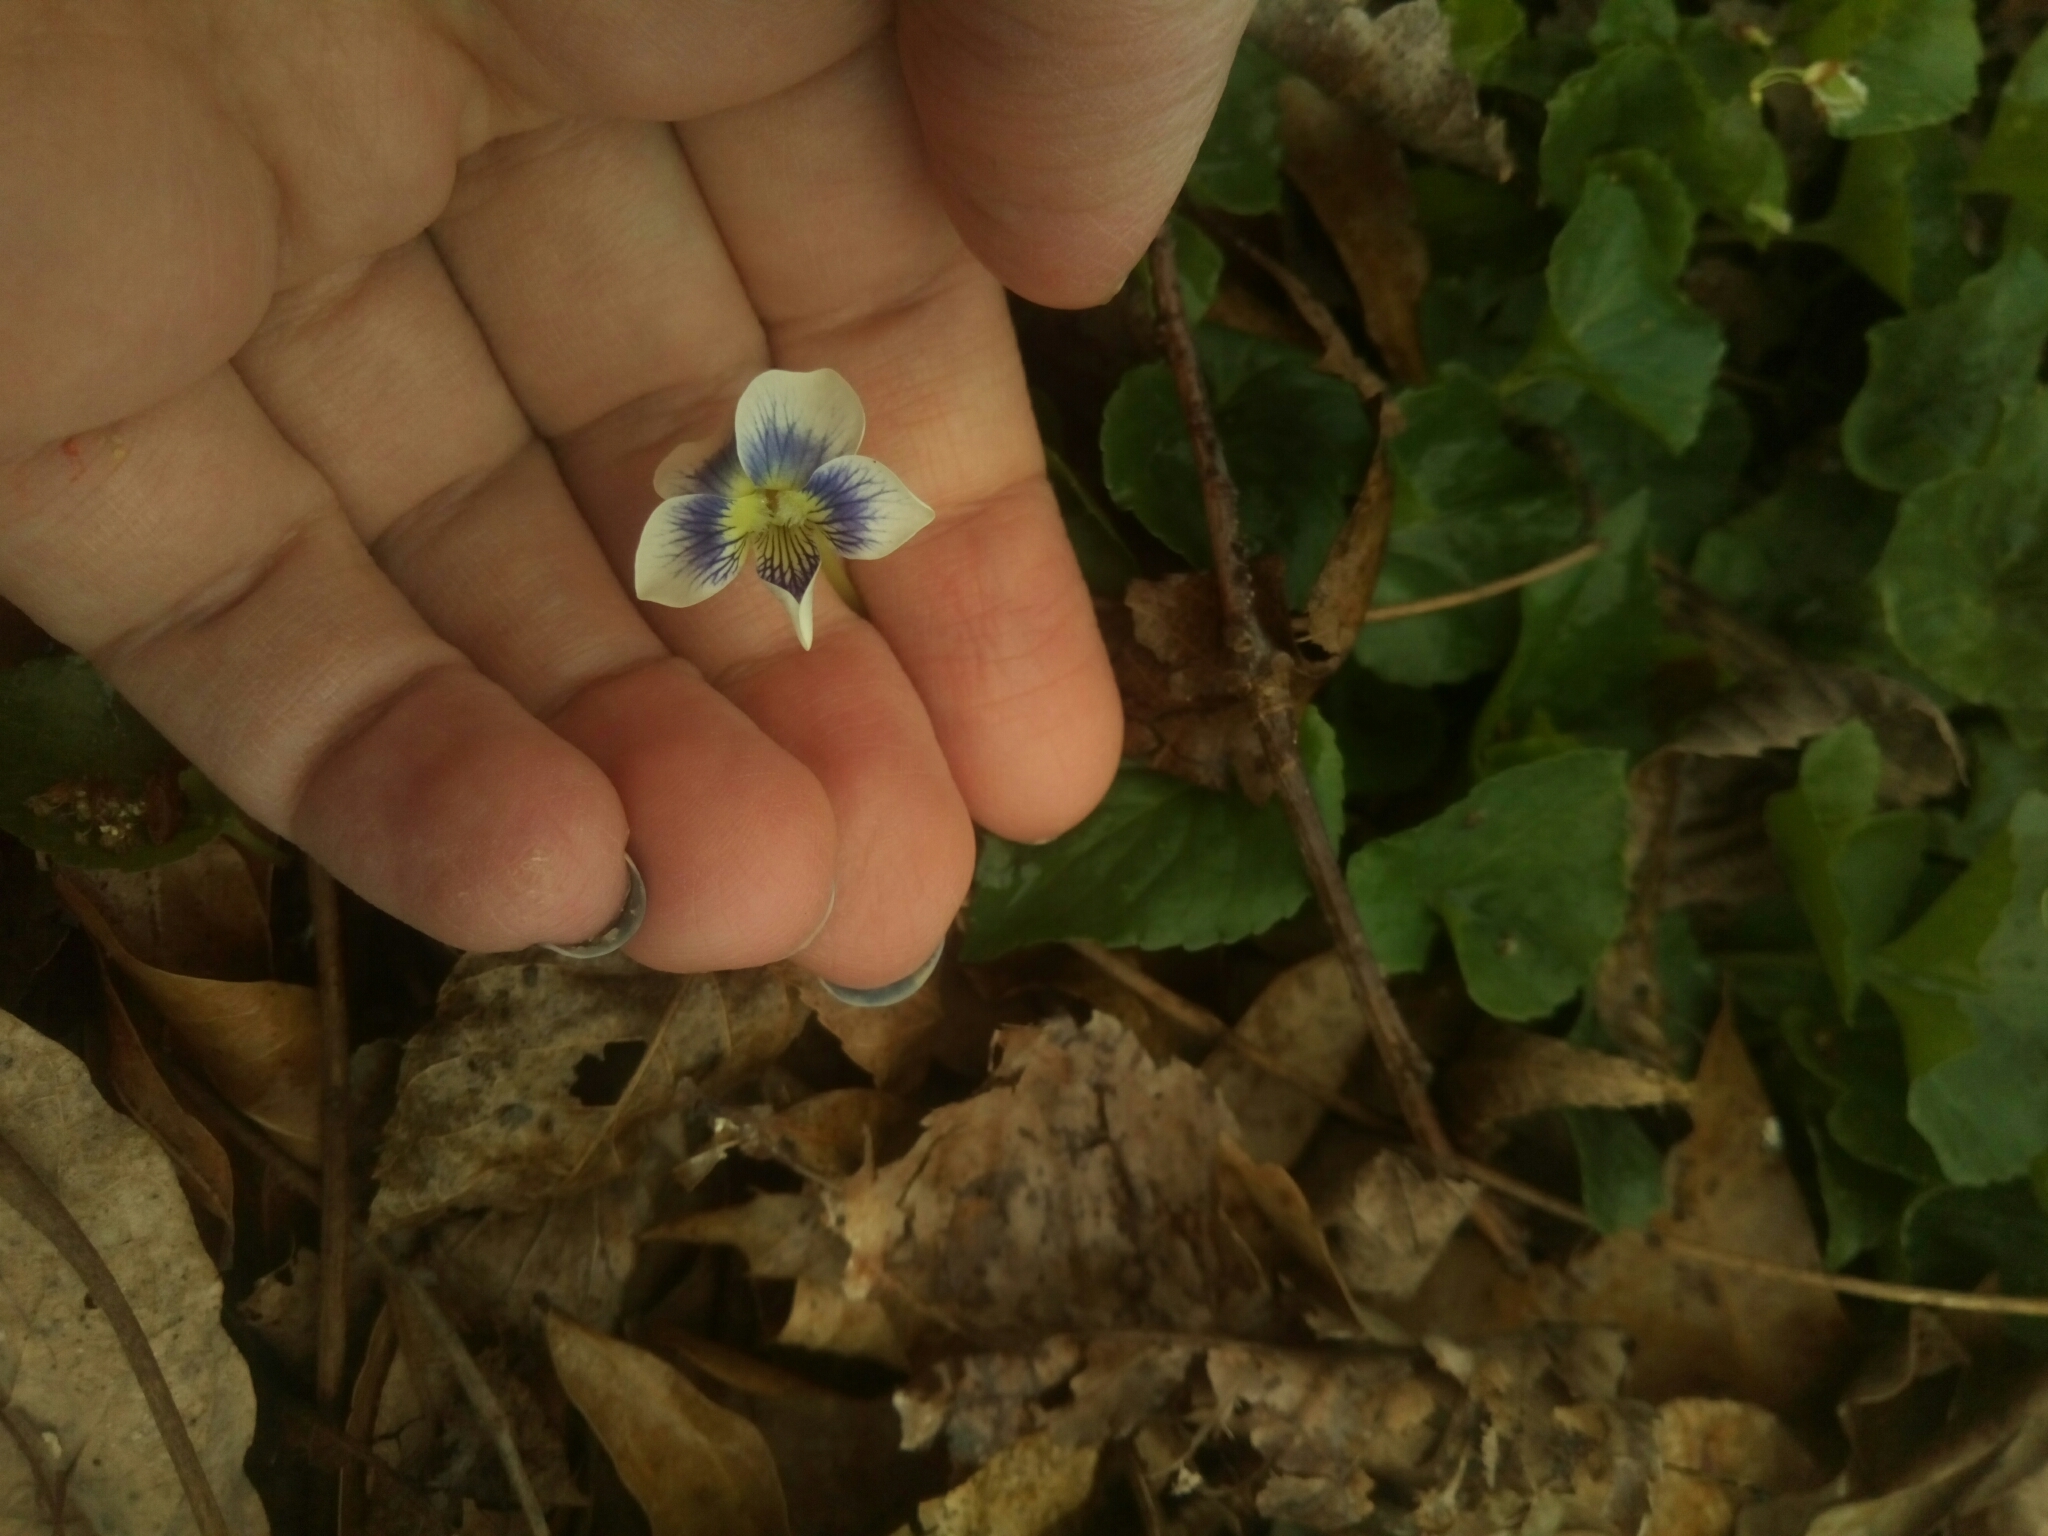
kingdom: Plantae
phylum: Tracheophyta
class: Magnoliopsida
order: Malpighiales
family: Violaceae
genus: Viola
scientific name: Viola sororia
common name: Dooryard violet
